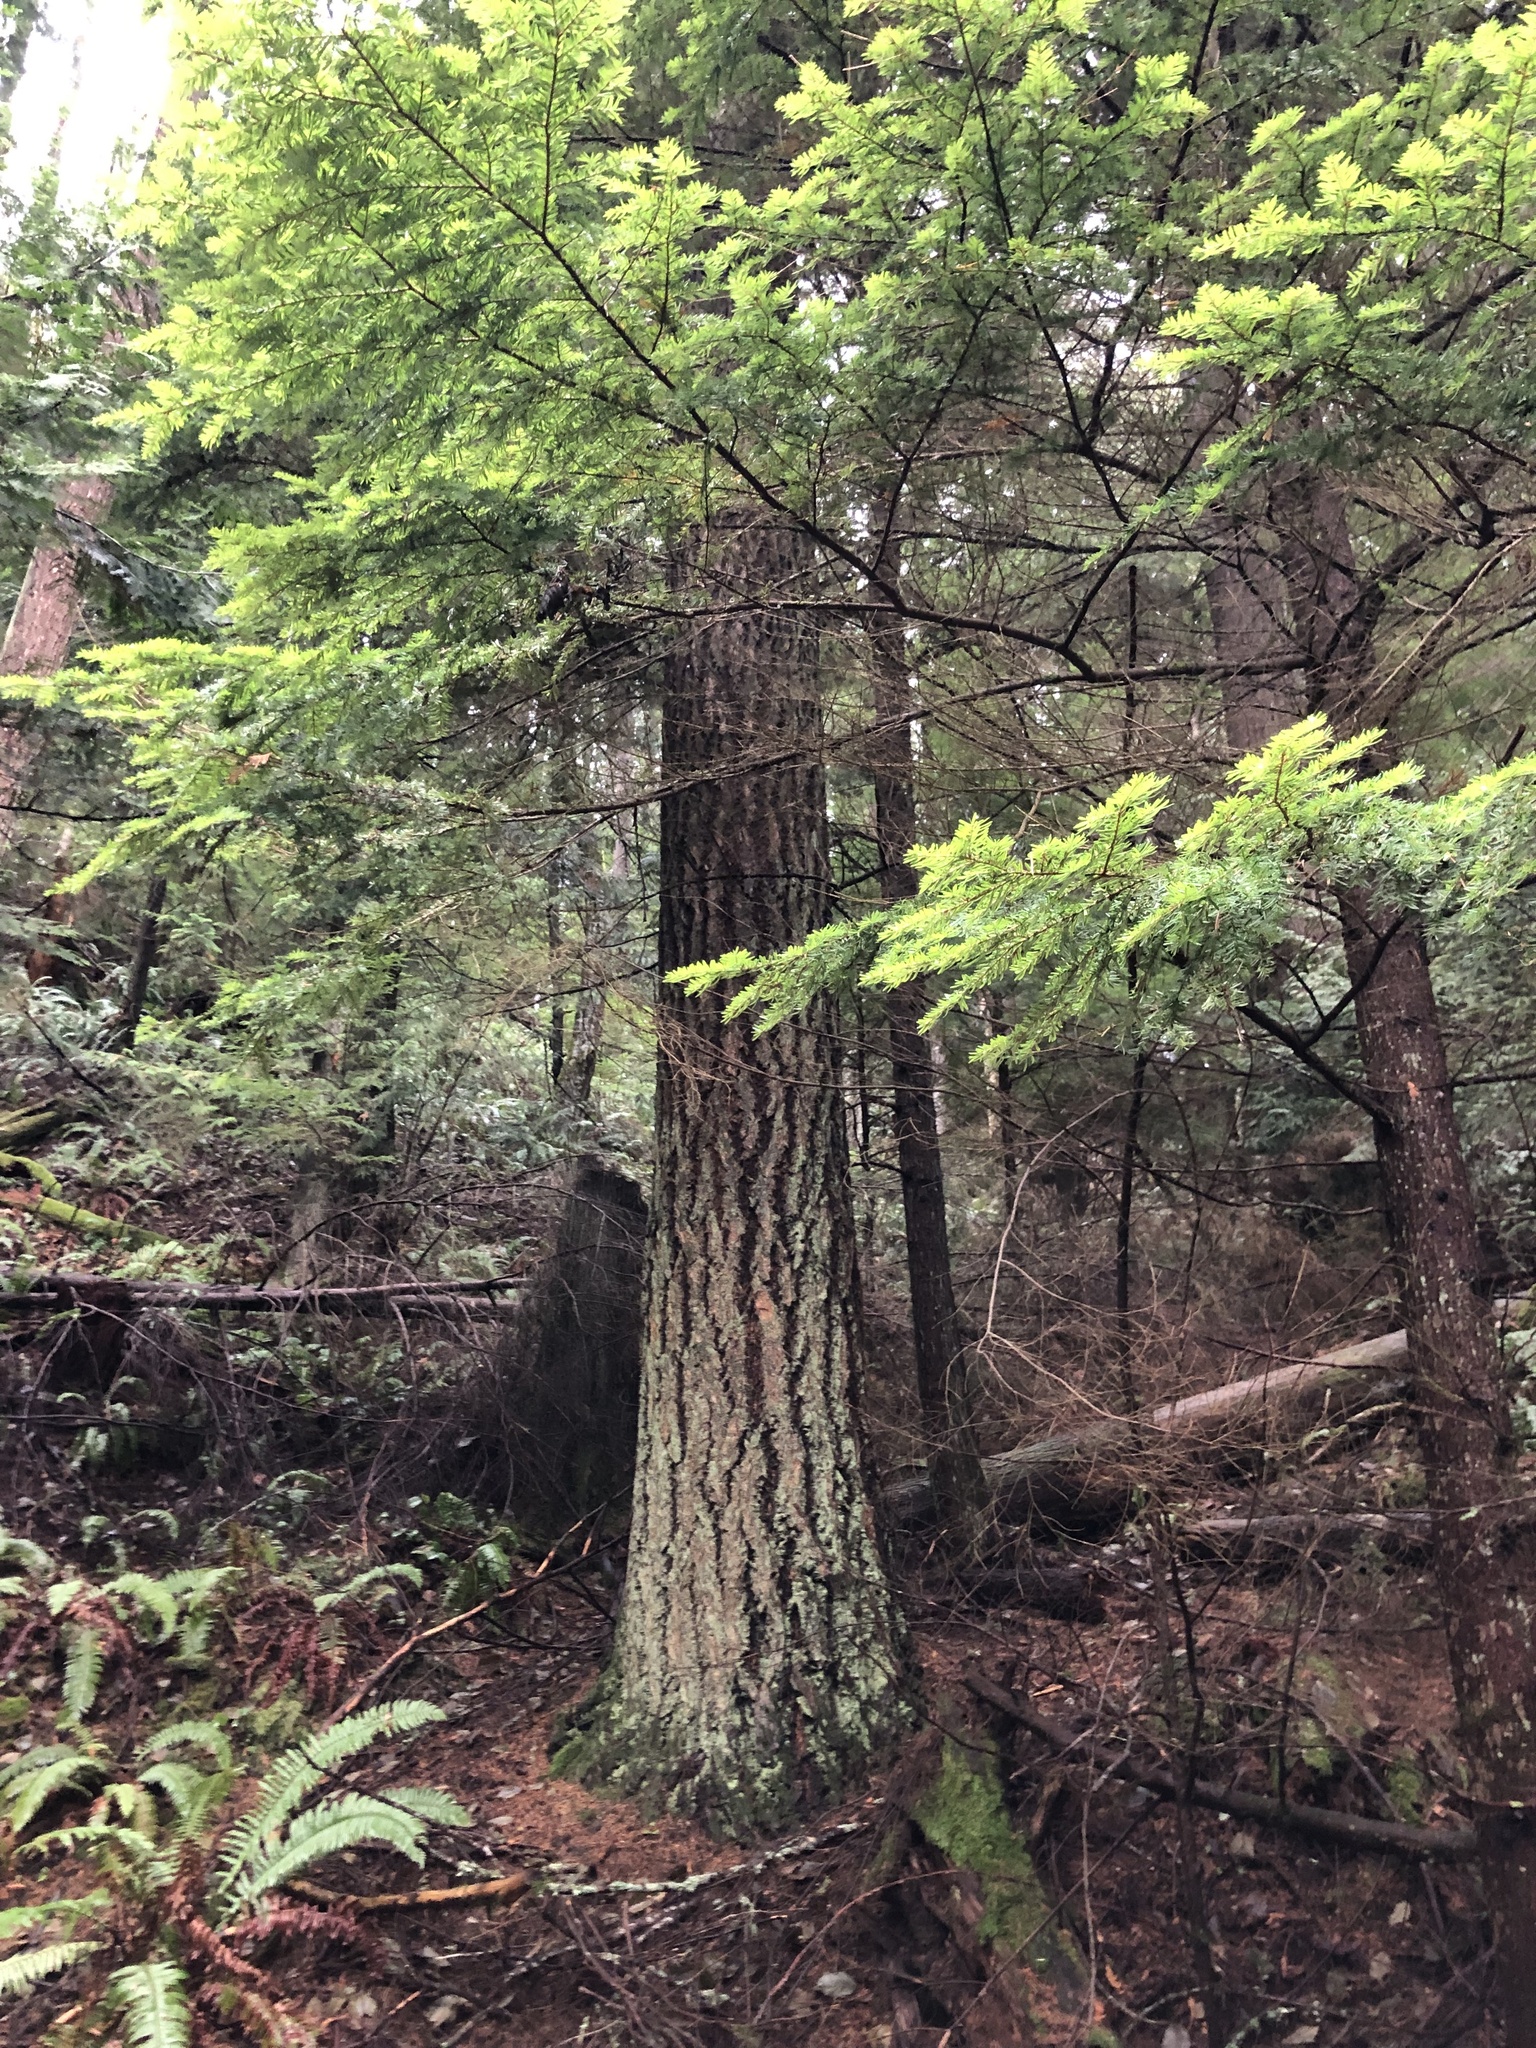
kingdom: Plantae
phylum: Tracheophyta
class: Pinopsida
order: Pinales
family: Pinaceae
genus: Tsuga
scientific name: Tsuga heterophylla
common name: Western hemlock
